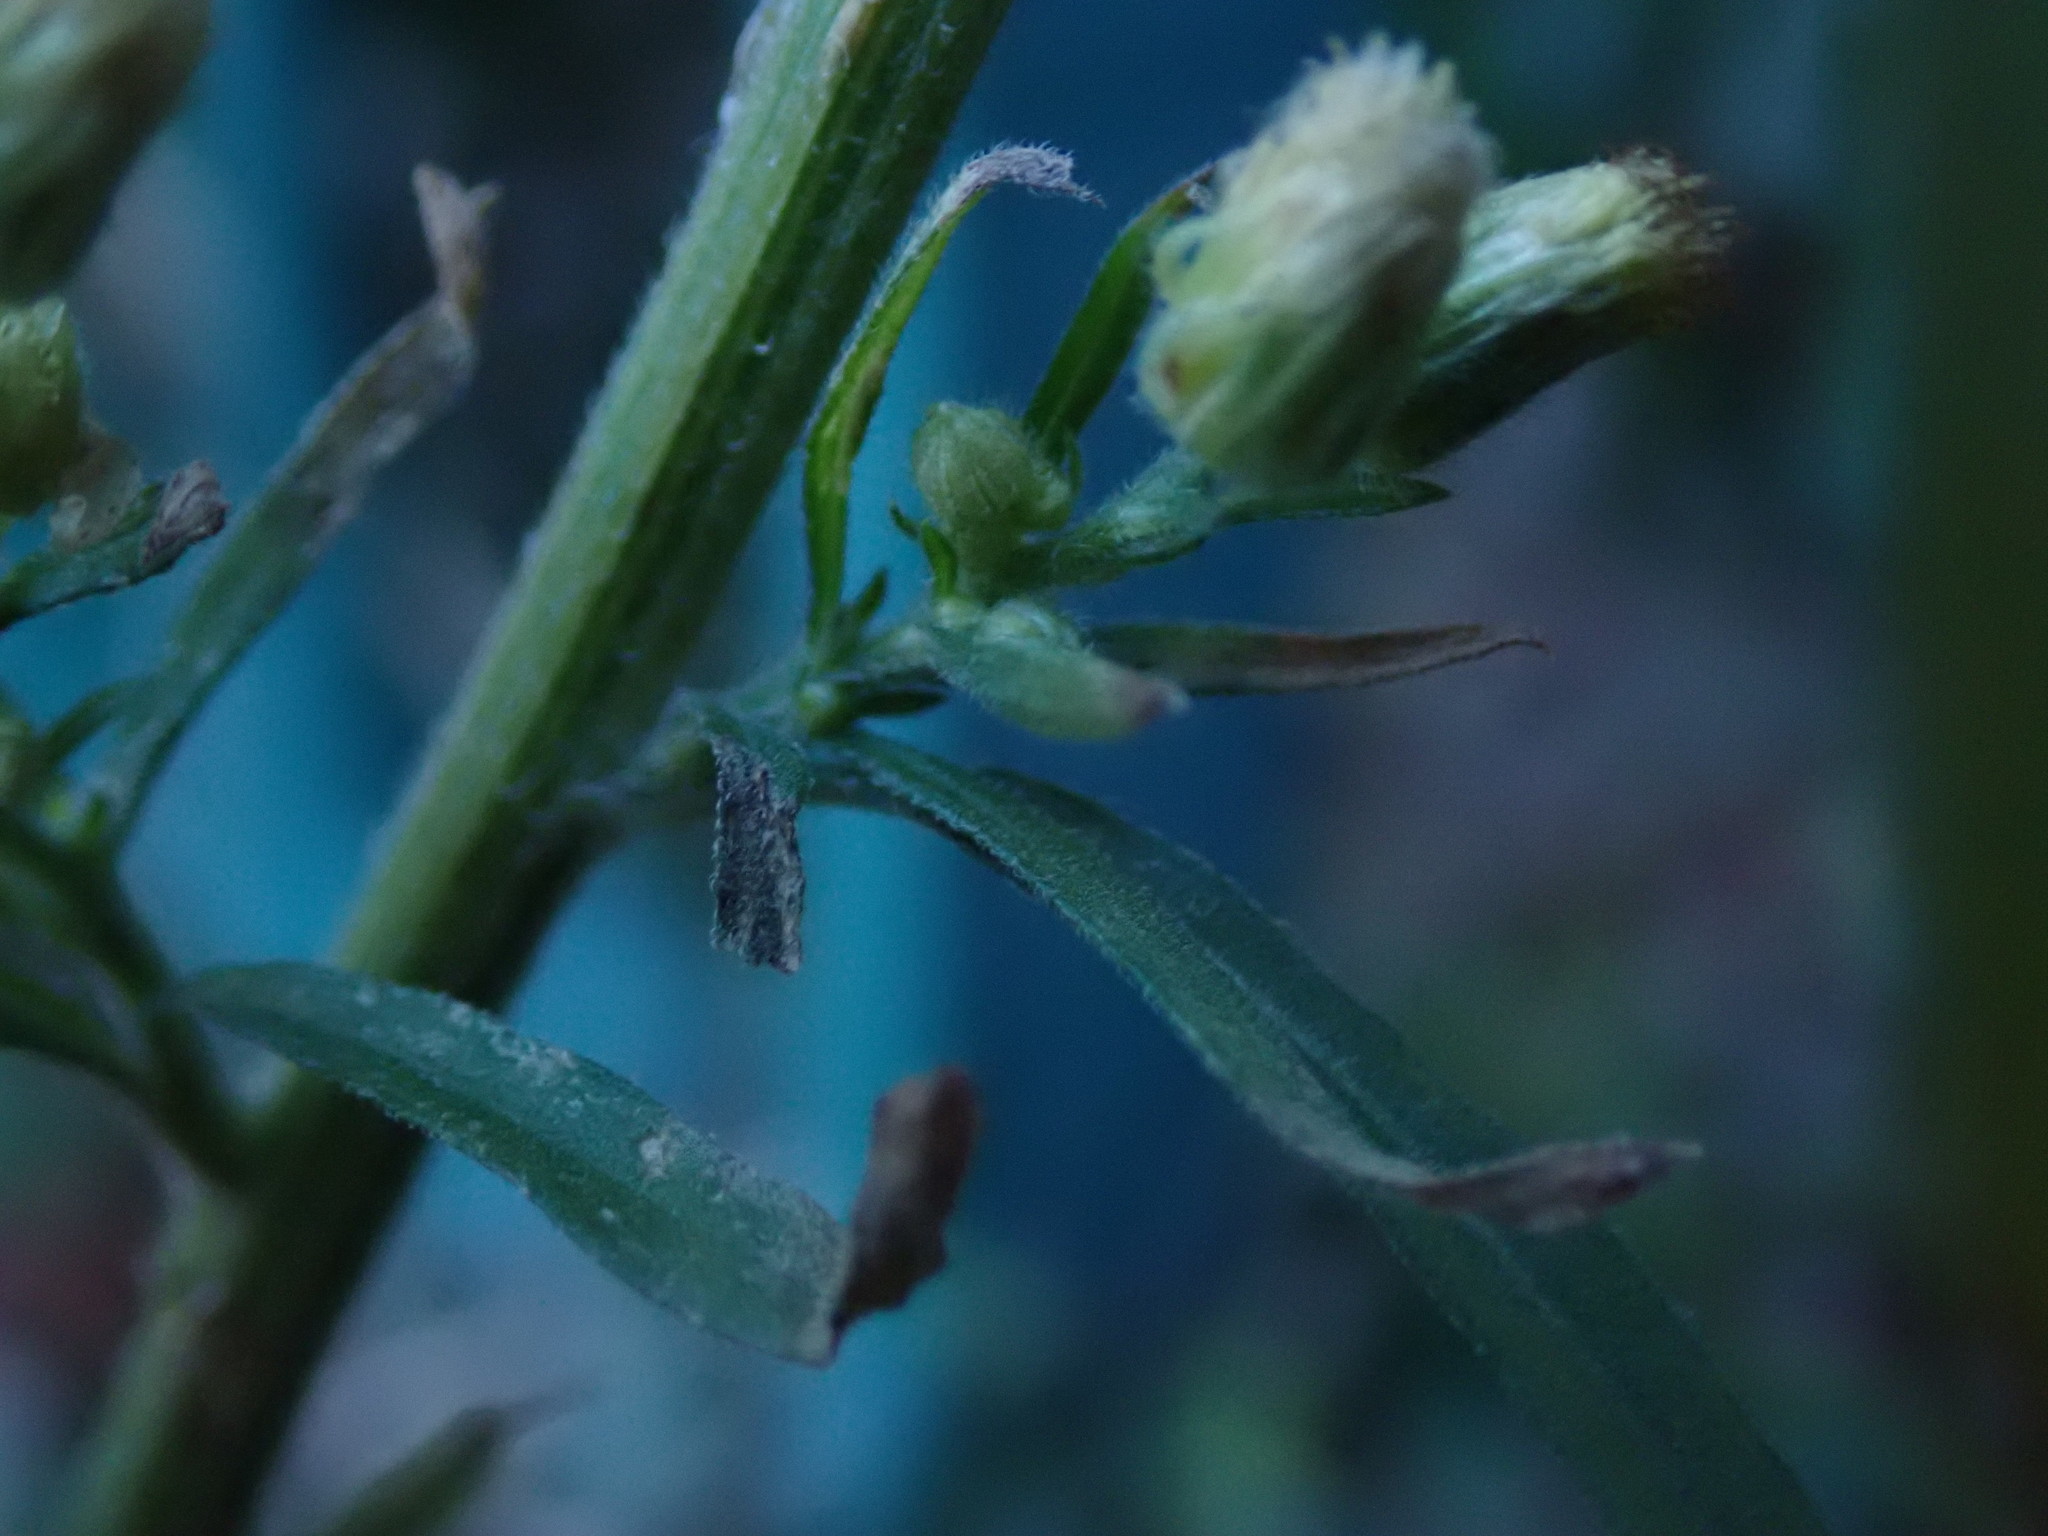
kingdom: Plantae
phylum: Tracheophyta
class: Magnoliopsida
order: Asterales
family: Asteraceae
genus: Erigeron
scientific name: Erigeron sumatrensis
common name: Daisy
